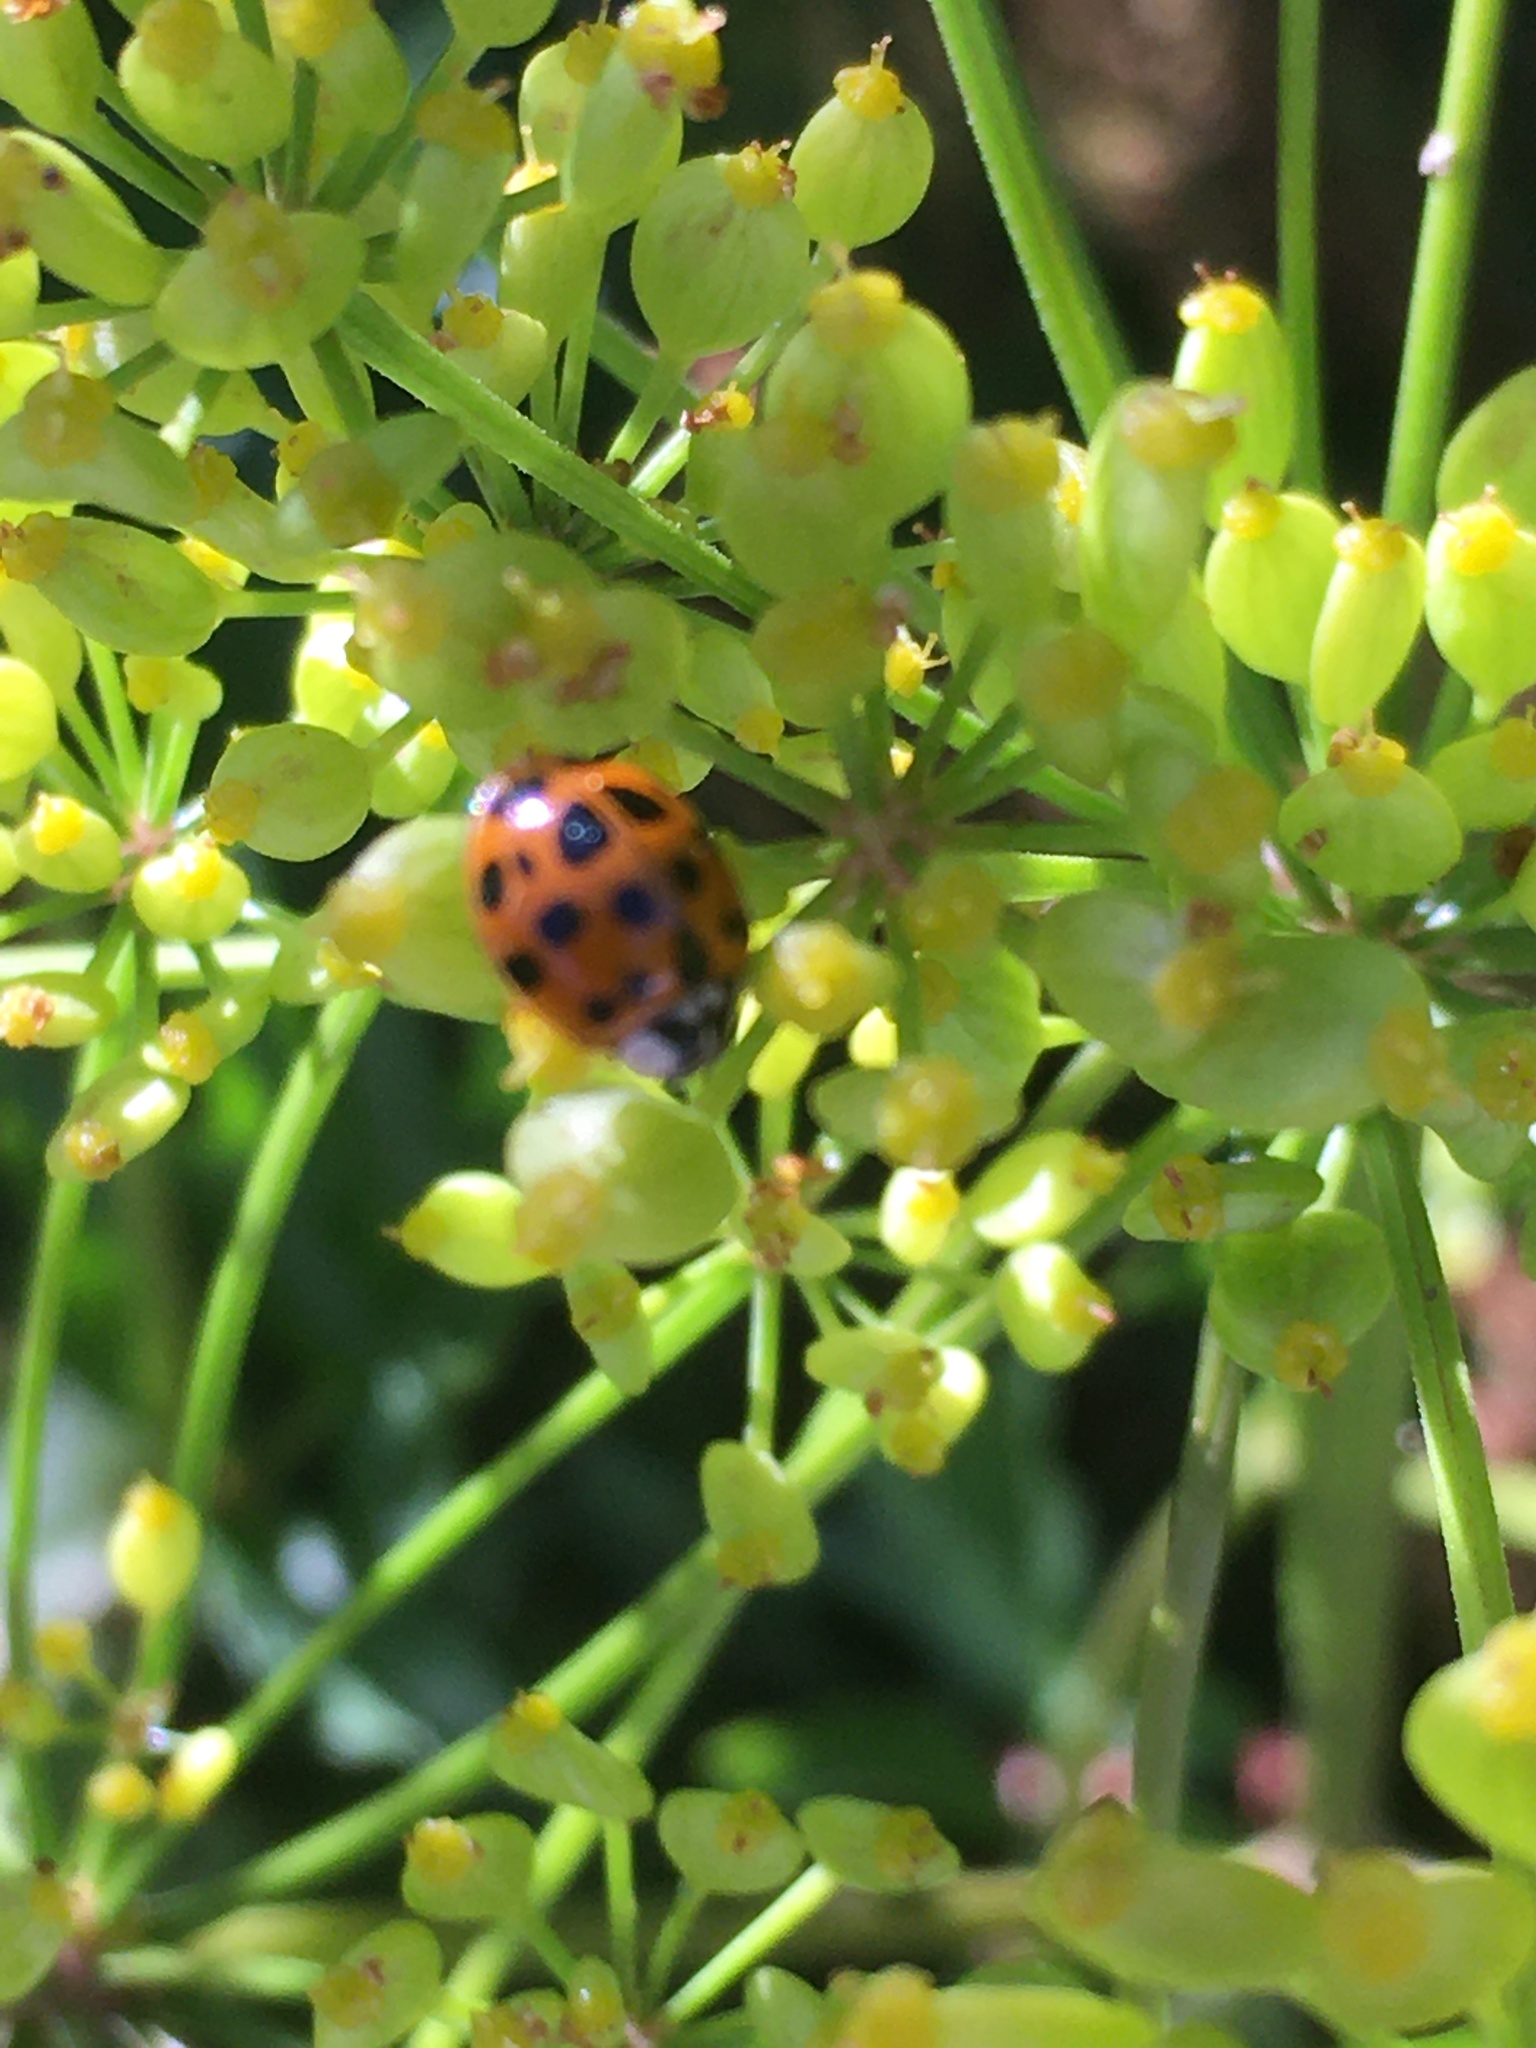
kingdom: Animalia
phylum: Arthropoda
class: Insecta
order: Coleoptera
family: Coccinellidae
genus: Harmonia
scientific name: Harmonia axyridis
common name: Harlequin ladybird
